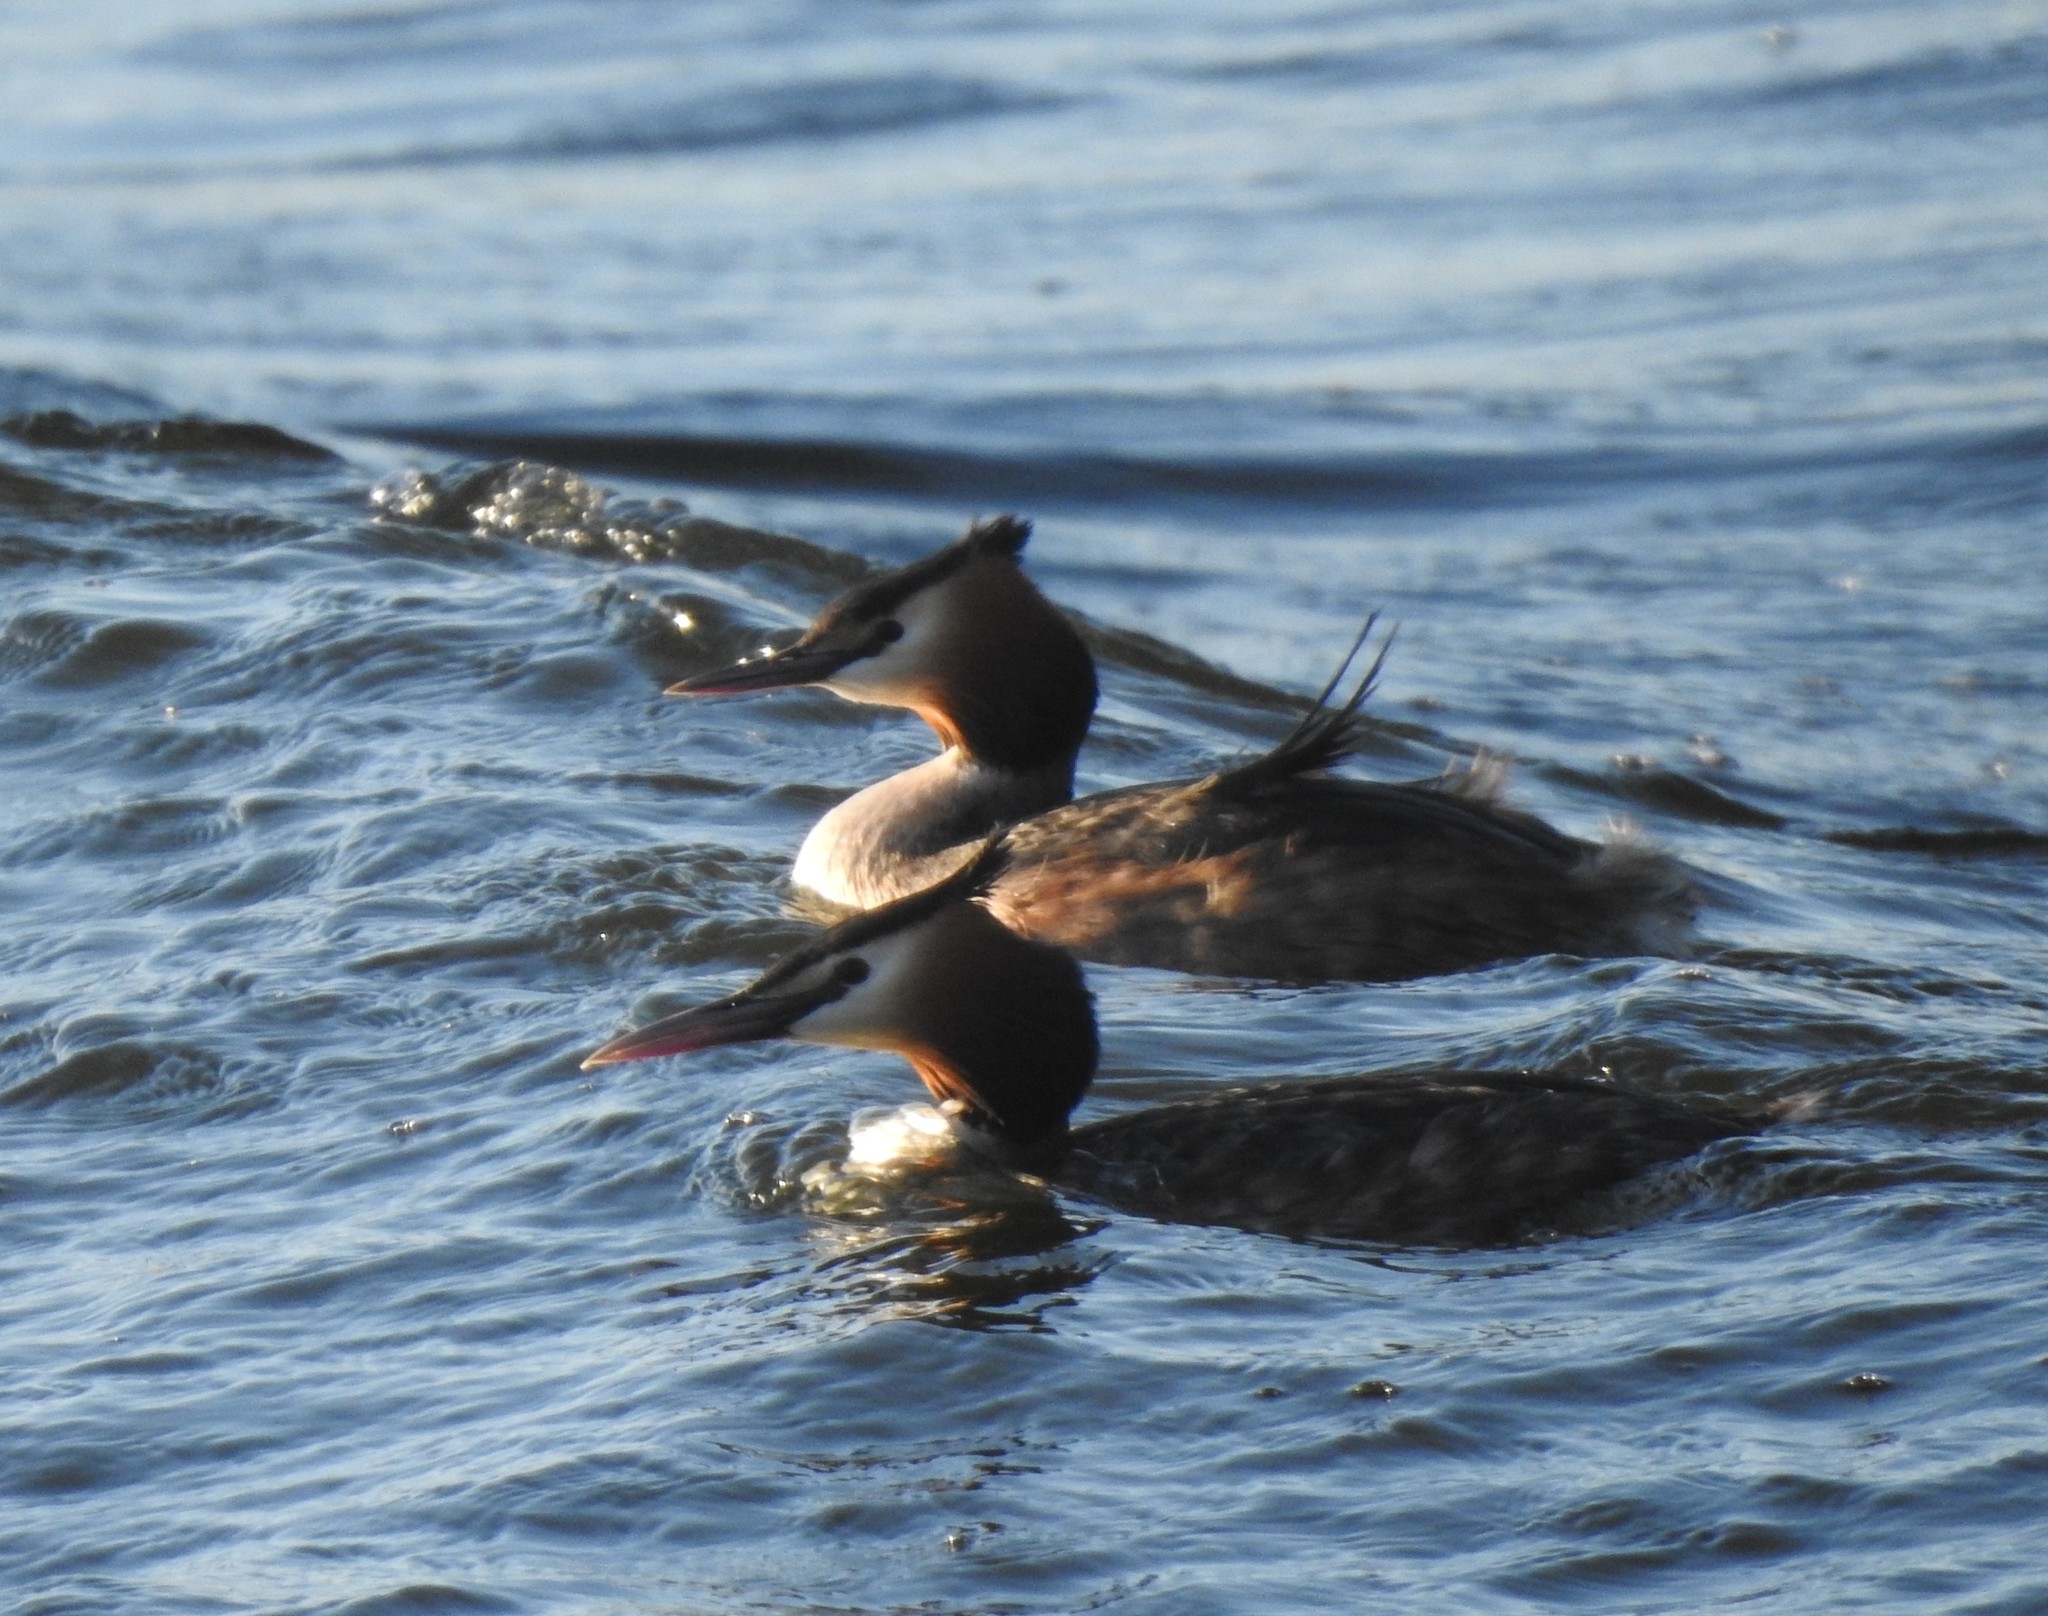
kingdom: Animalia
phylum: Chordata
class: Aves
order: Podicipediformes
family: Podicipedidae
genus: Podiceps
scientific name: Podiceps cristatus
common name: Great crested grebe
